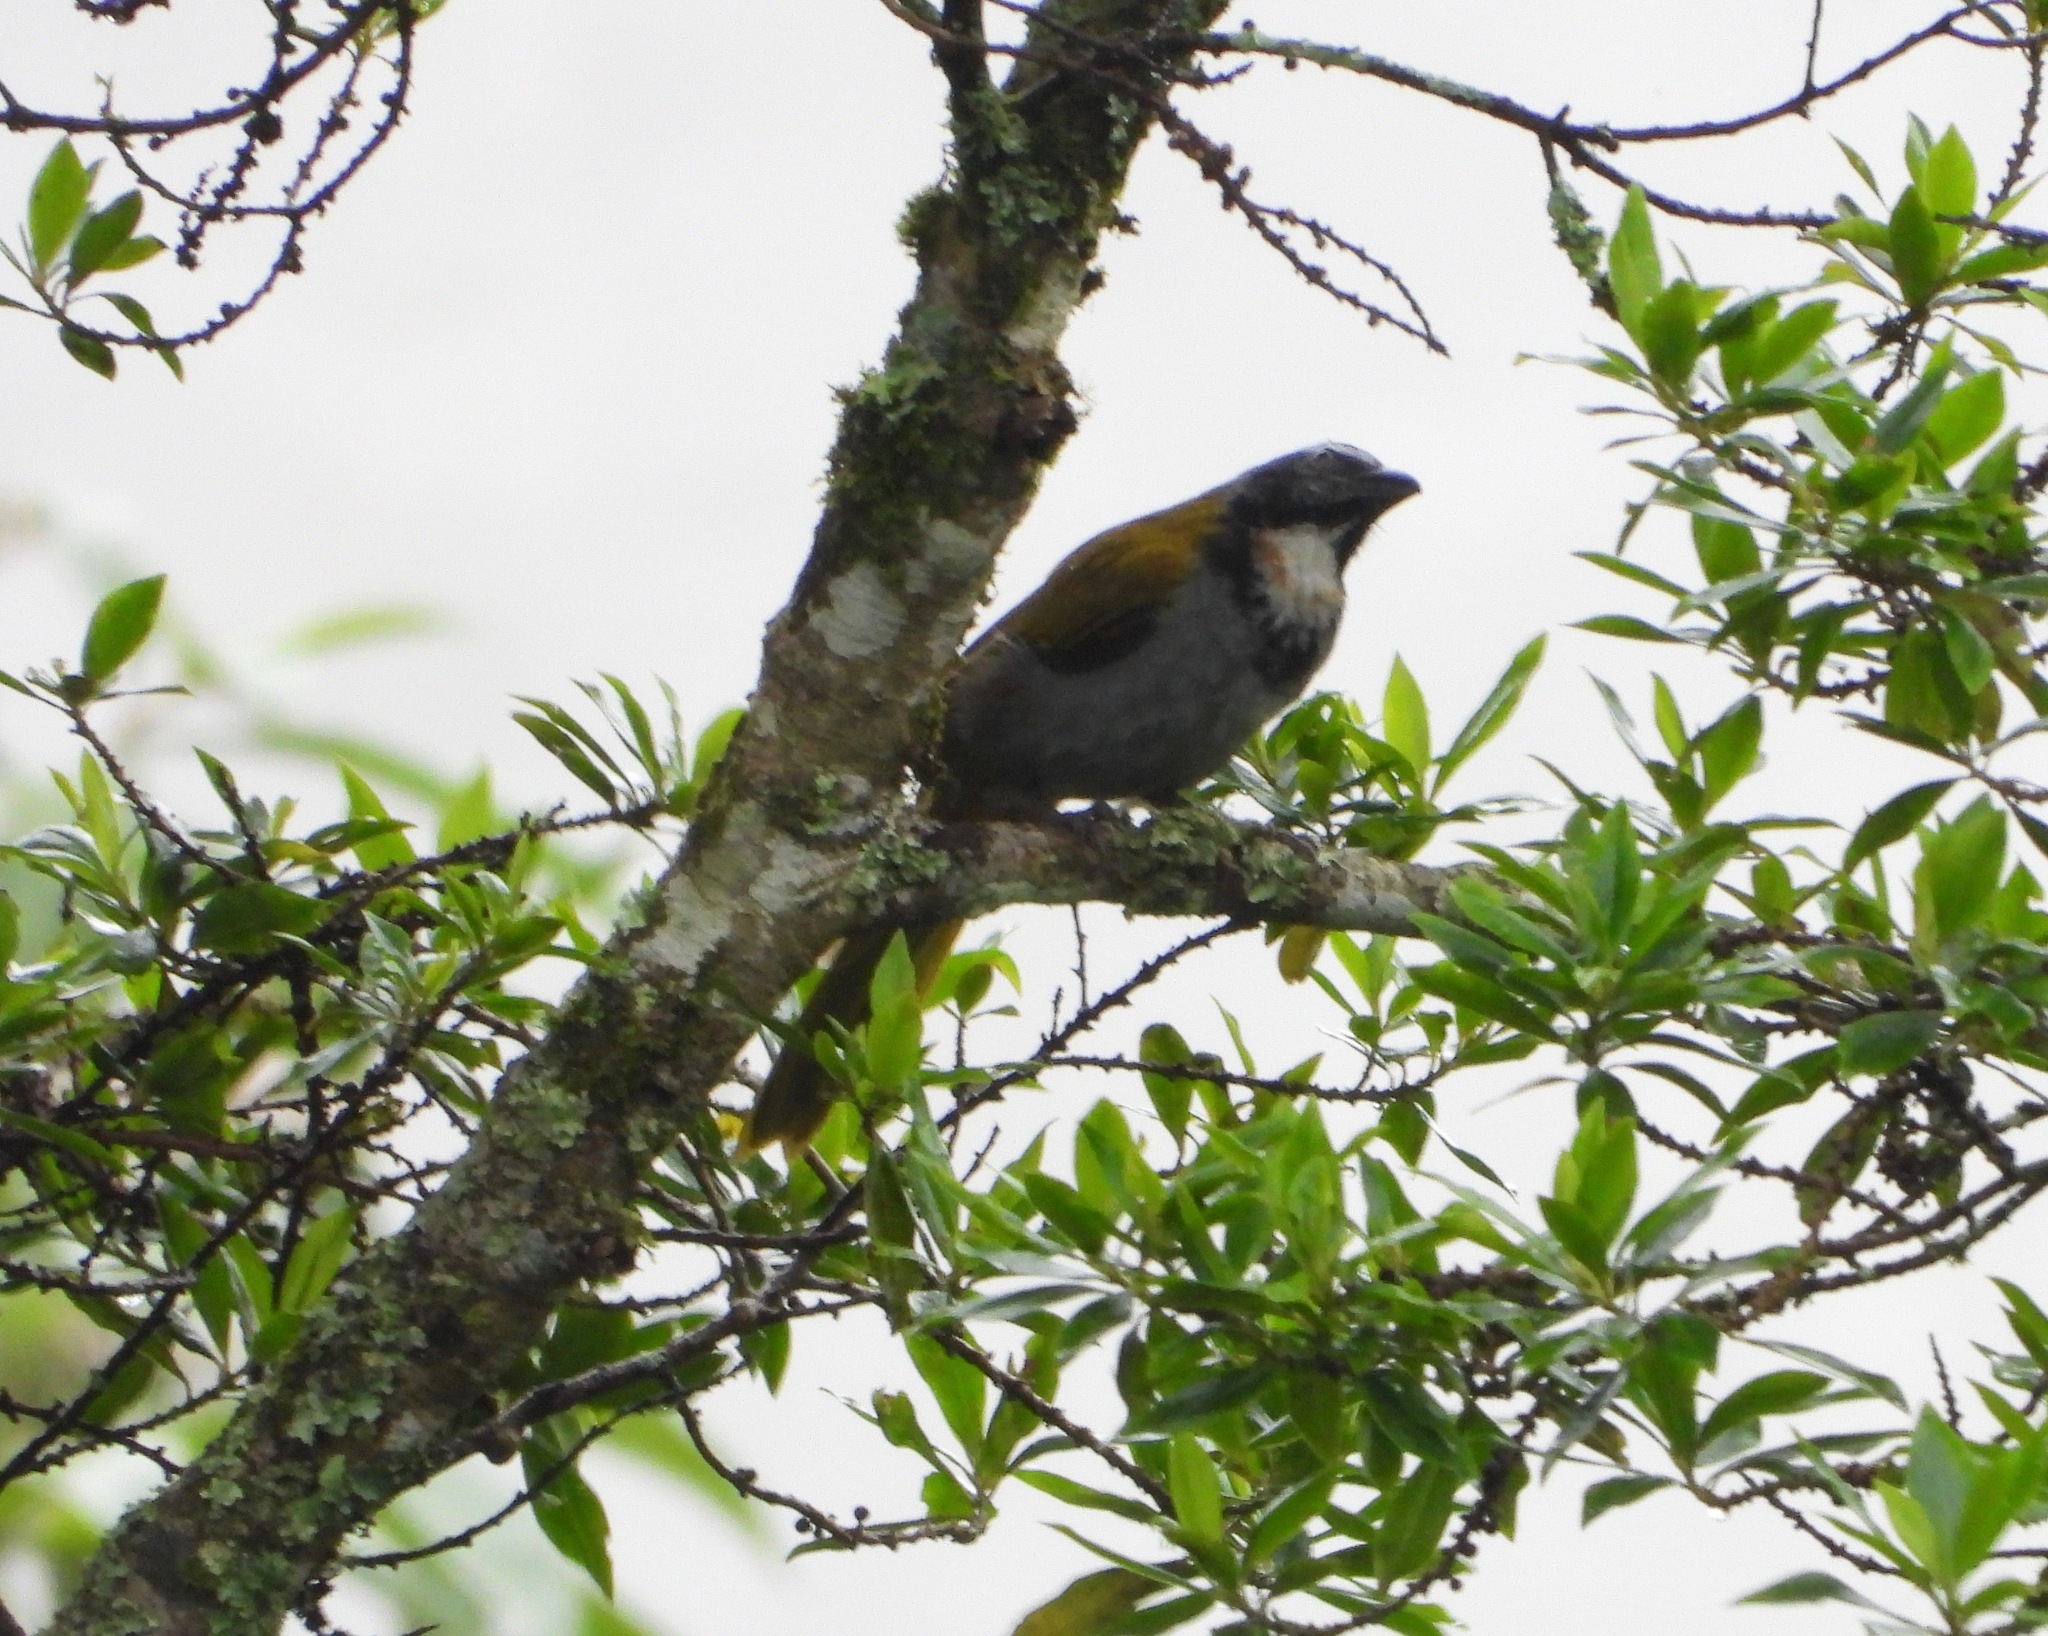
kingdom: Animalia
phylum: Chordata
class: Aves
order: Passeriformes
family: Thraupidae
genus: Saltator
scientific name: Saltator atriceps
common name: Black-headed saltator
